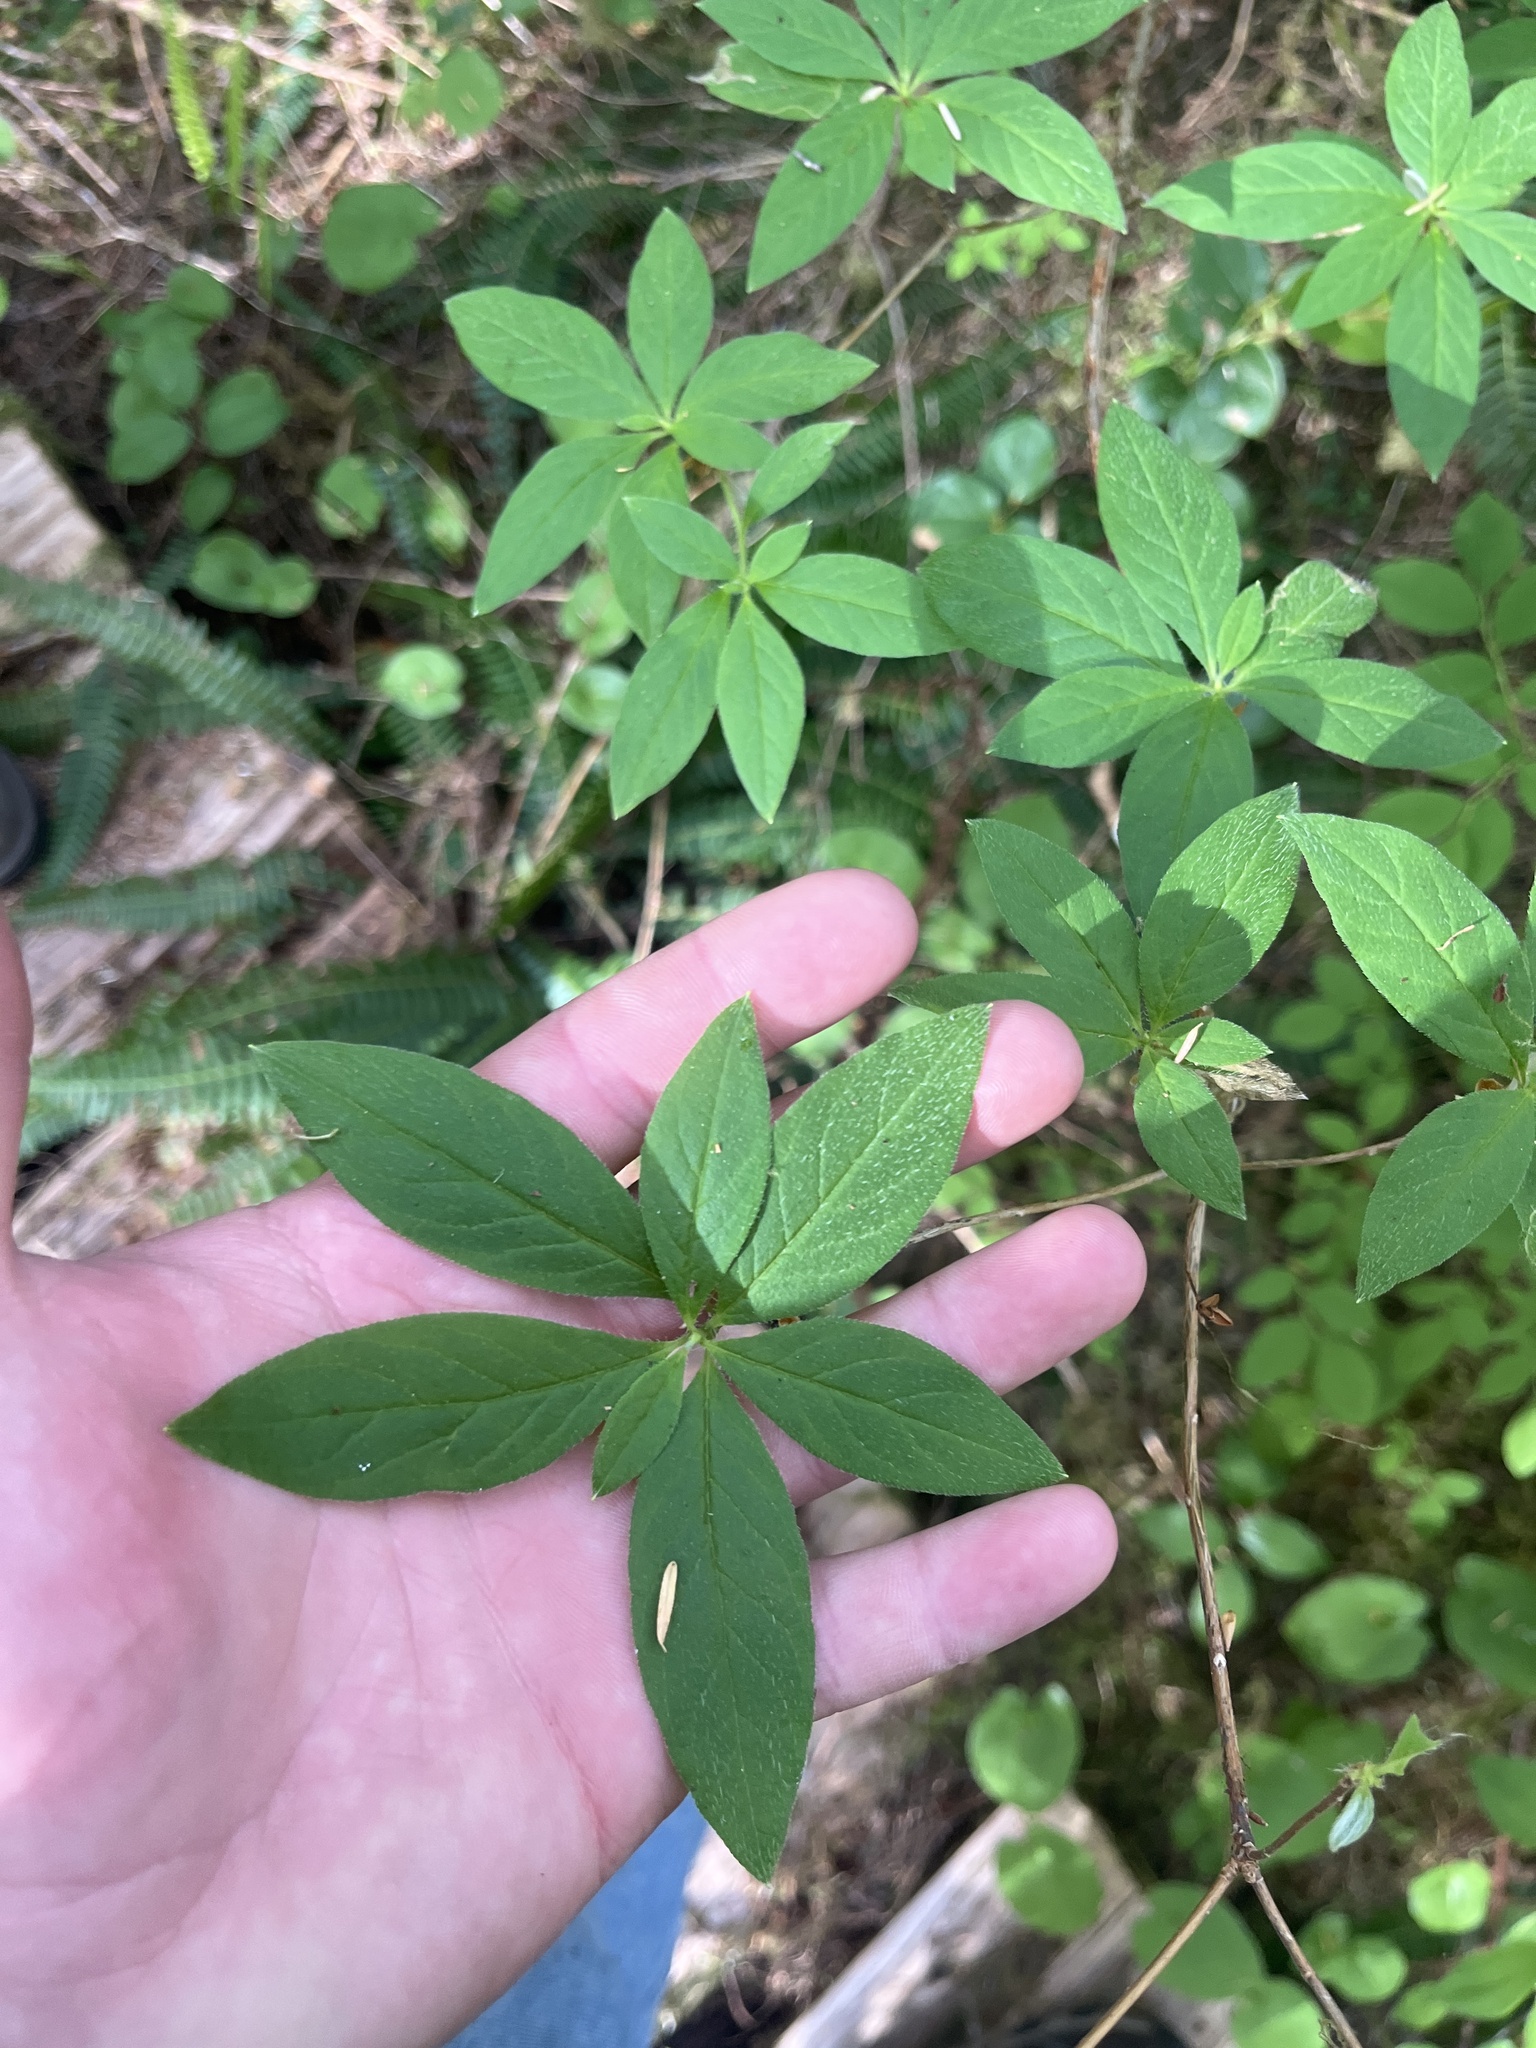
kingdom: Plantae
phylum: Tracheophyta
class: Magnoliopsida
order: Ericales
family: Ericaceae
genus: Rhododendron
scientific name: Rhododendron menziesii
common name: Pacific menziesia
